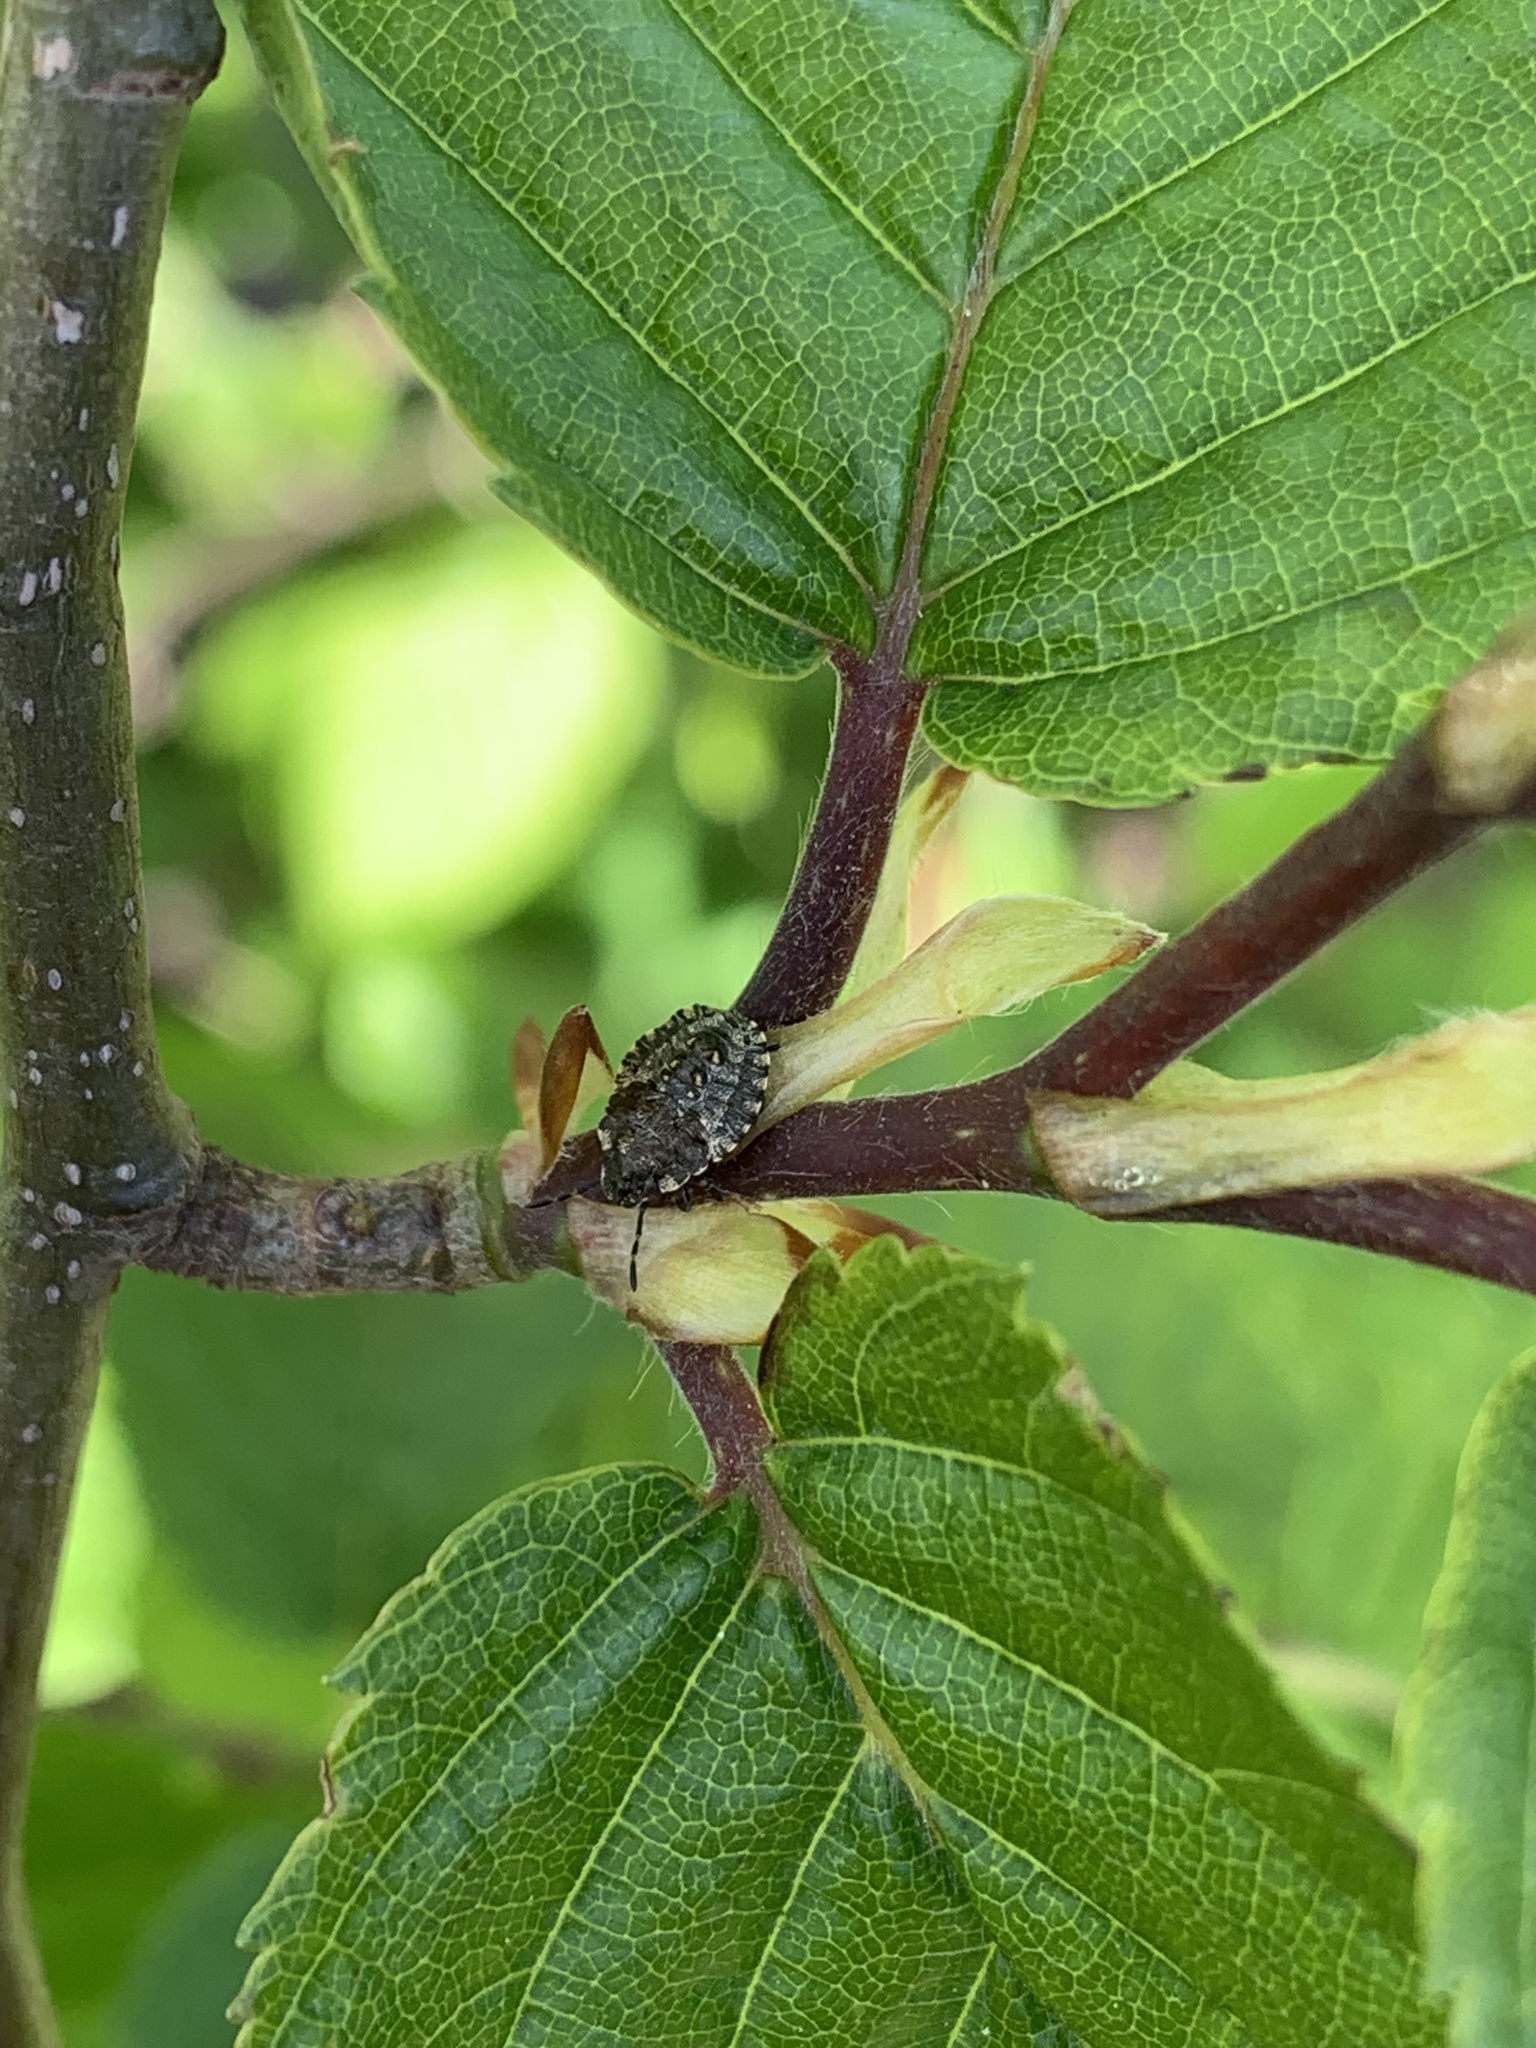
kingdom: Animalia
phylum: Arthropoda
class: Insecta
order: Hemiptera
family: Pentatomidae
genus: Pentatoma
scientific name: Pentatoma rufipes
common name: Forest bug
